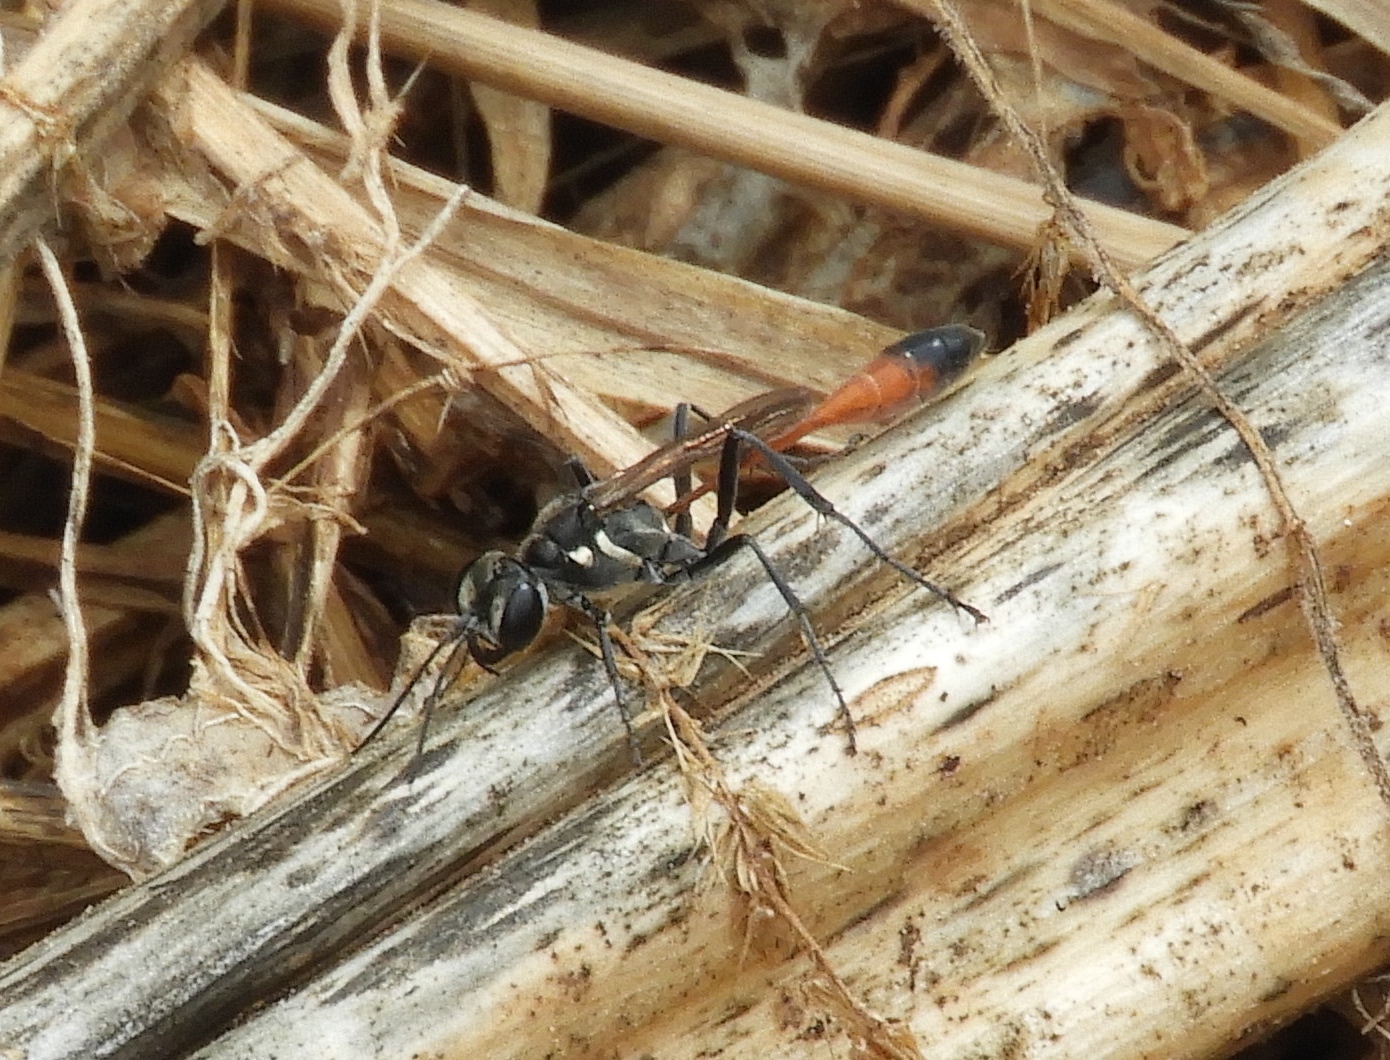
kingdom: Animalia
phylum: Arthropoda
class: Insecta
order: Hymenoptera
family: Sphecidae
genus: Ammophila
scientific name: Ammophila
